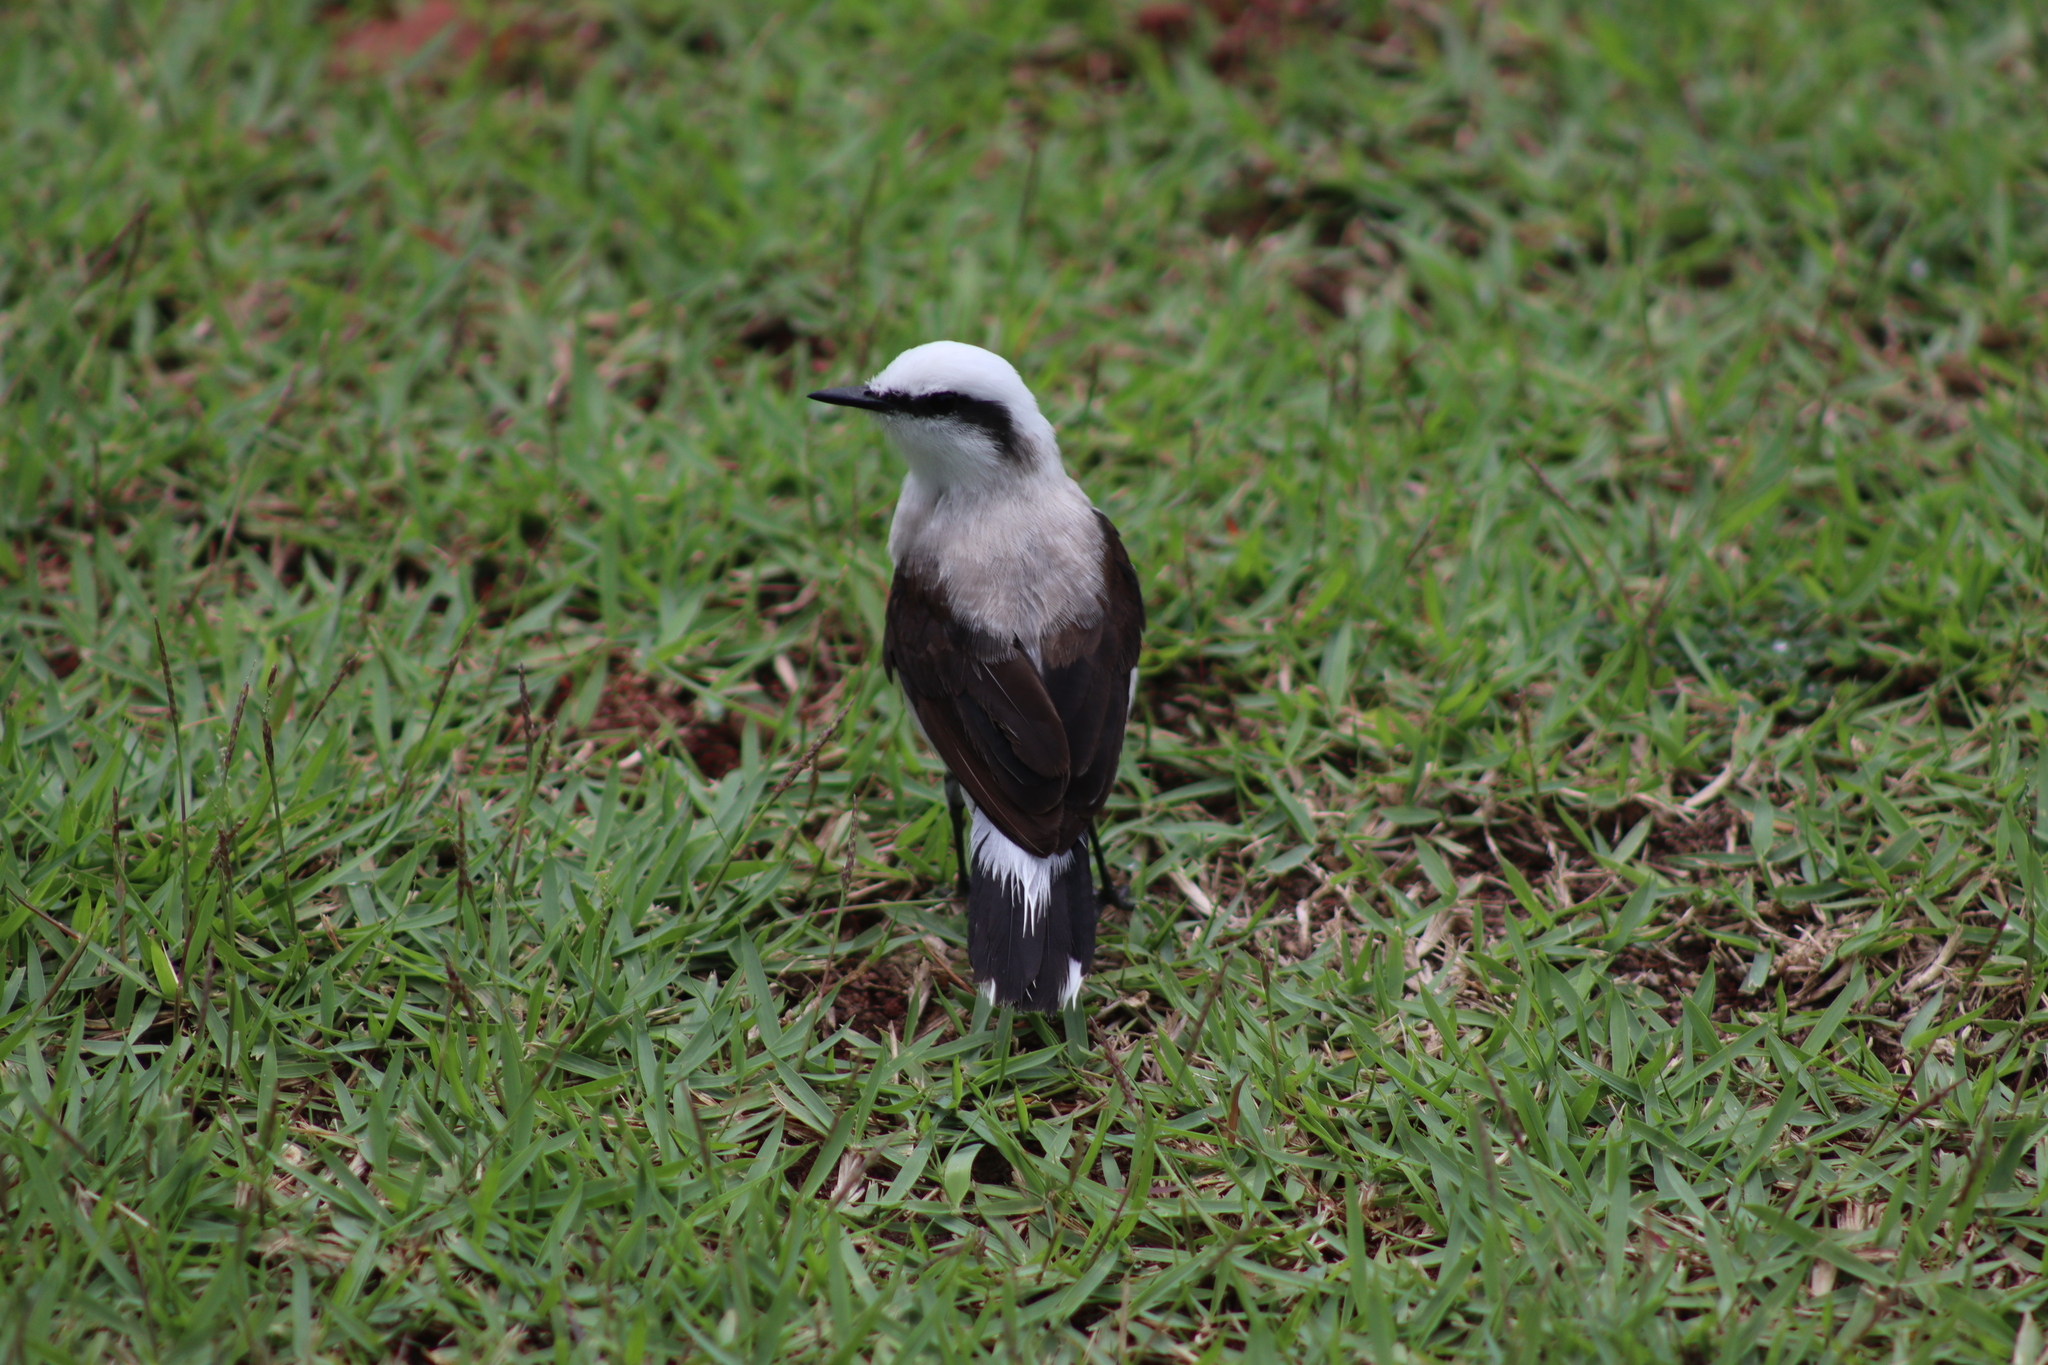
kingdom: Animalia
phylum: Chordata
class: Aves
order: Passeriformes
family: Tyrannidae
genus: Fluvicola
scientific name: Fluvicola nengeta
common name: Masked water tyrant
